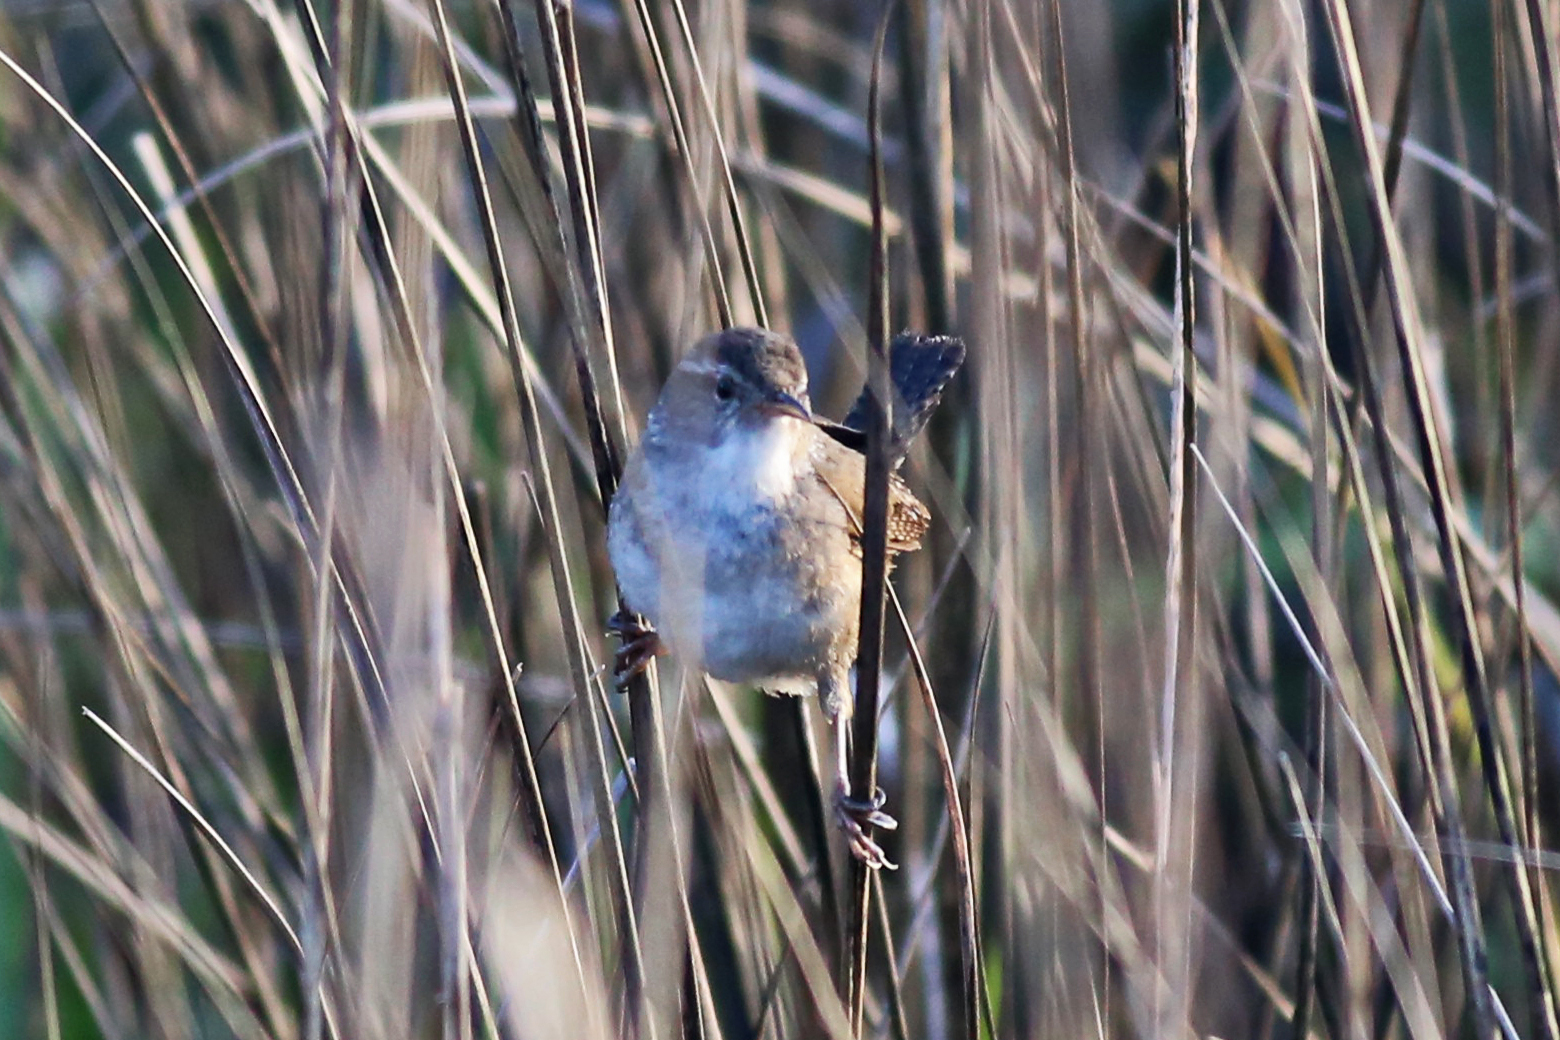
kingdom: Animalia
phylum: Chordata
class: Aves
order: Passeriformes
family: Troglodytidae
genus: Cistothorus
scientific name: Cistothorus palustris
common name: Marsh wren
